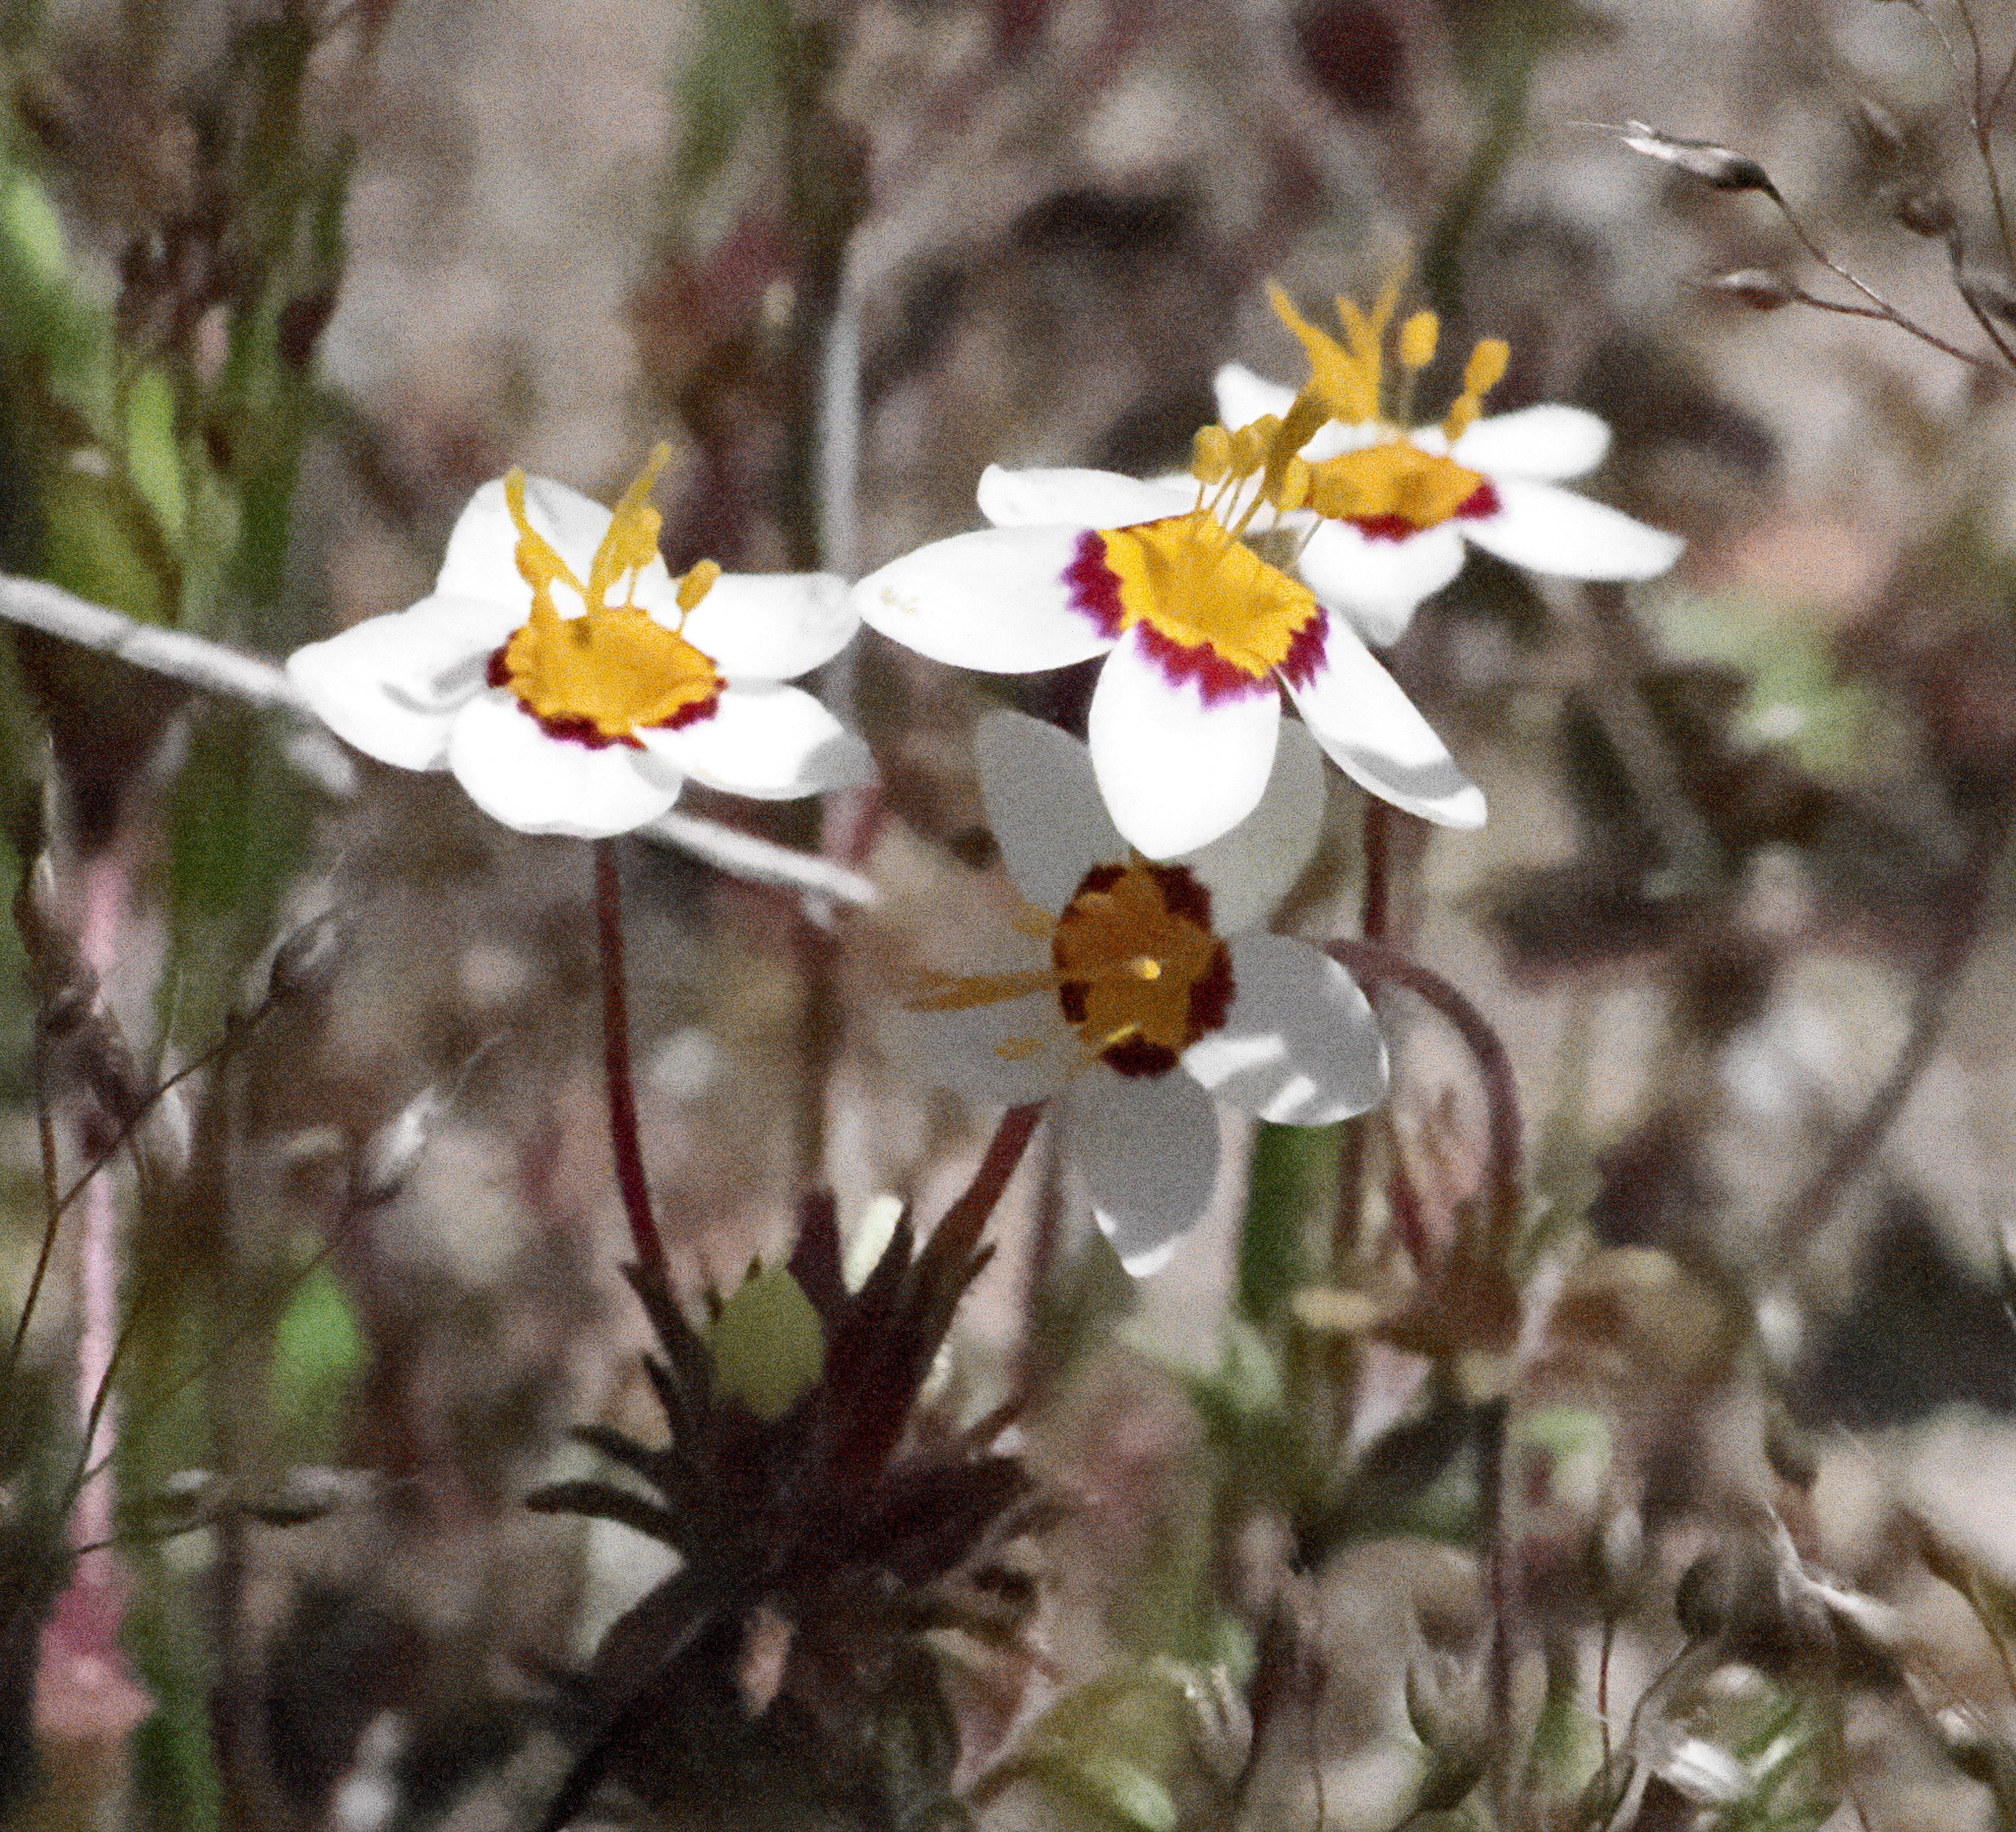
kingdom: Plantae
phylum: Tracheophyta
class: Magnoliopsida
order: Ericales
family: Polemoniaceae
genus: Leptosiphon
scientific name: Leptosiphon parviflorus
